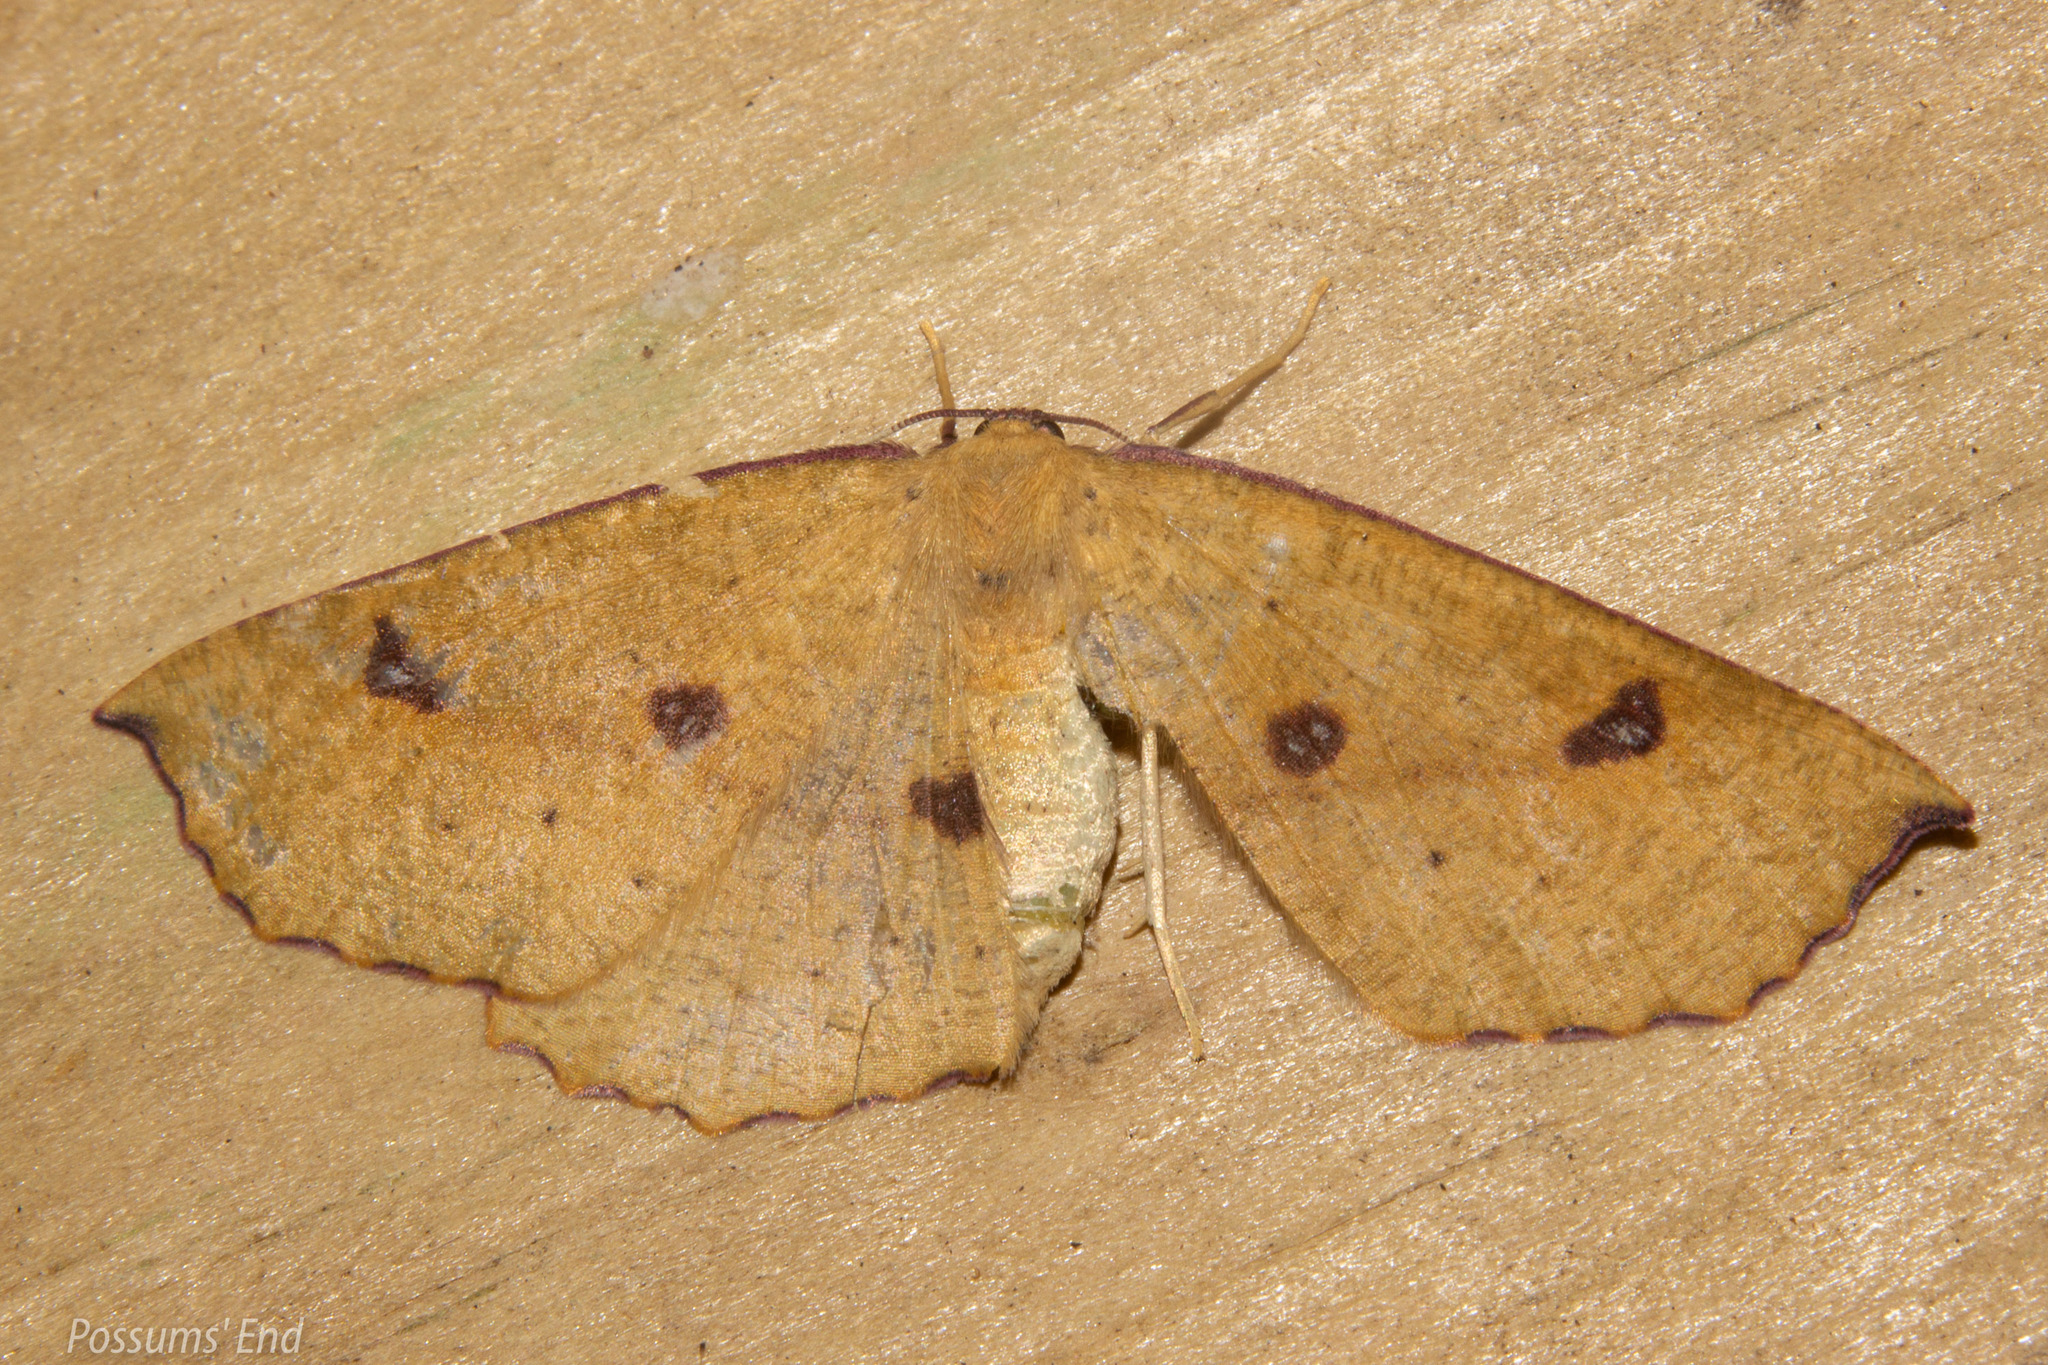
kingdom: Animalia
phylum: Arthropoda
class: Insecta
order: Lepidoptera
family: Geometridae
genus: Xyridacma
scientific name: Xyridacma alectoraria
